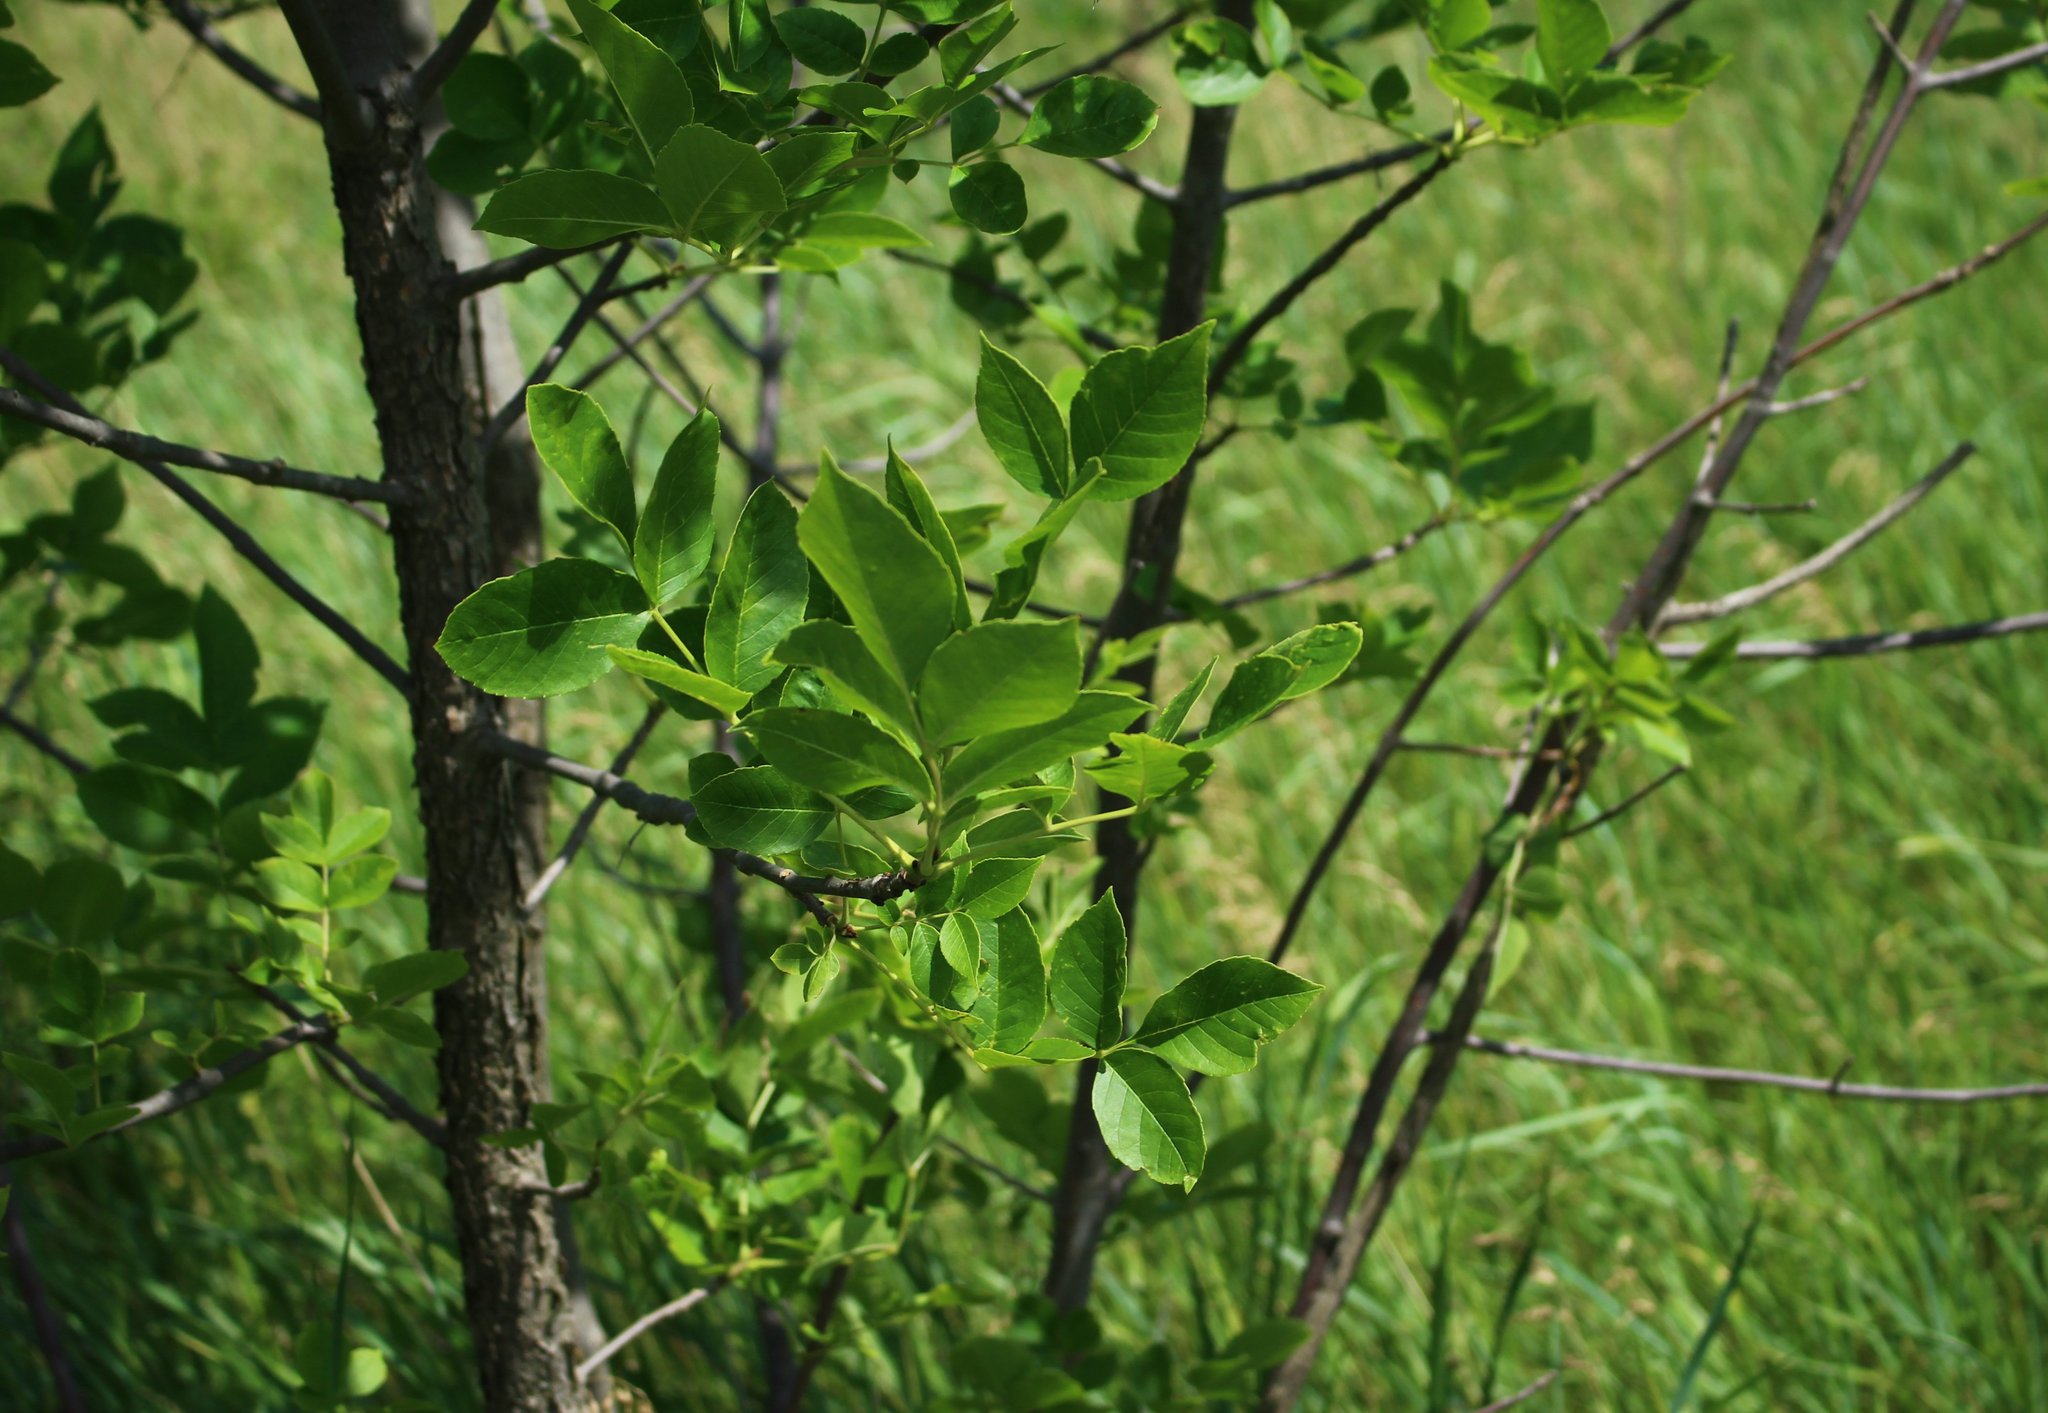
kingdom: Plantae
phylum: Tracheophyta
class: Magnoliopsida
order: Lamiales
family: Oleaceae
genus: Fraxinus
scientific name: Fraxinus pennsylvanica
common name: Green ash
